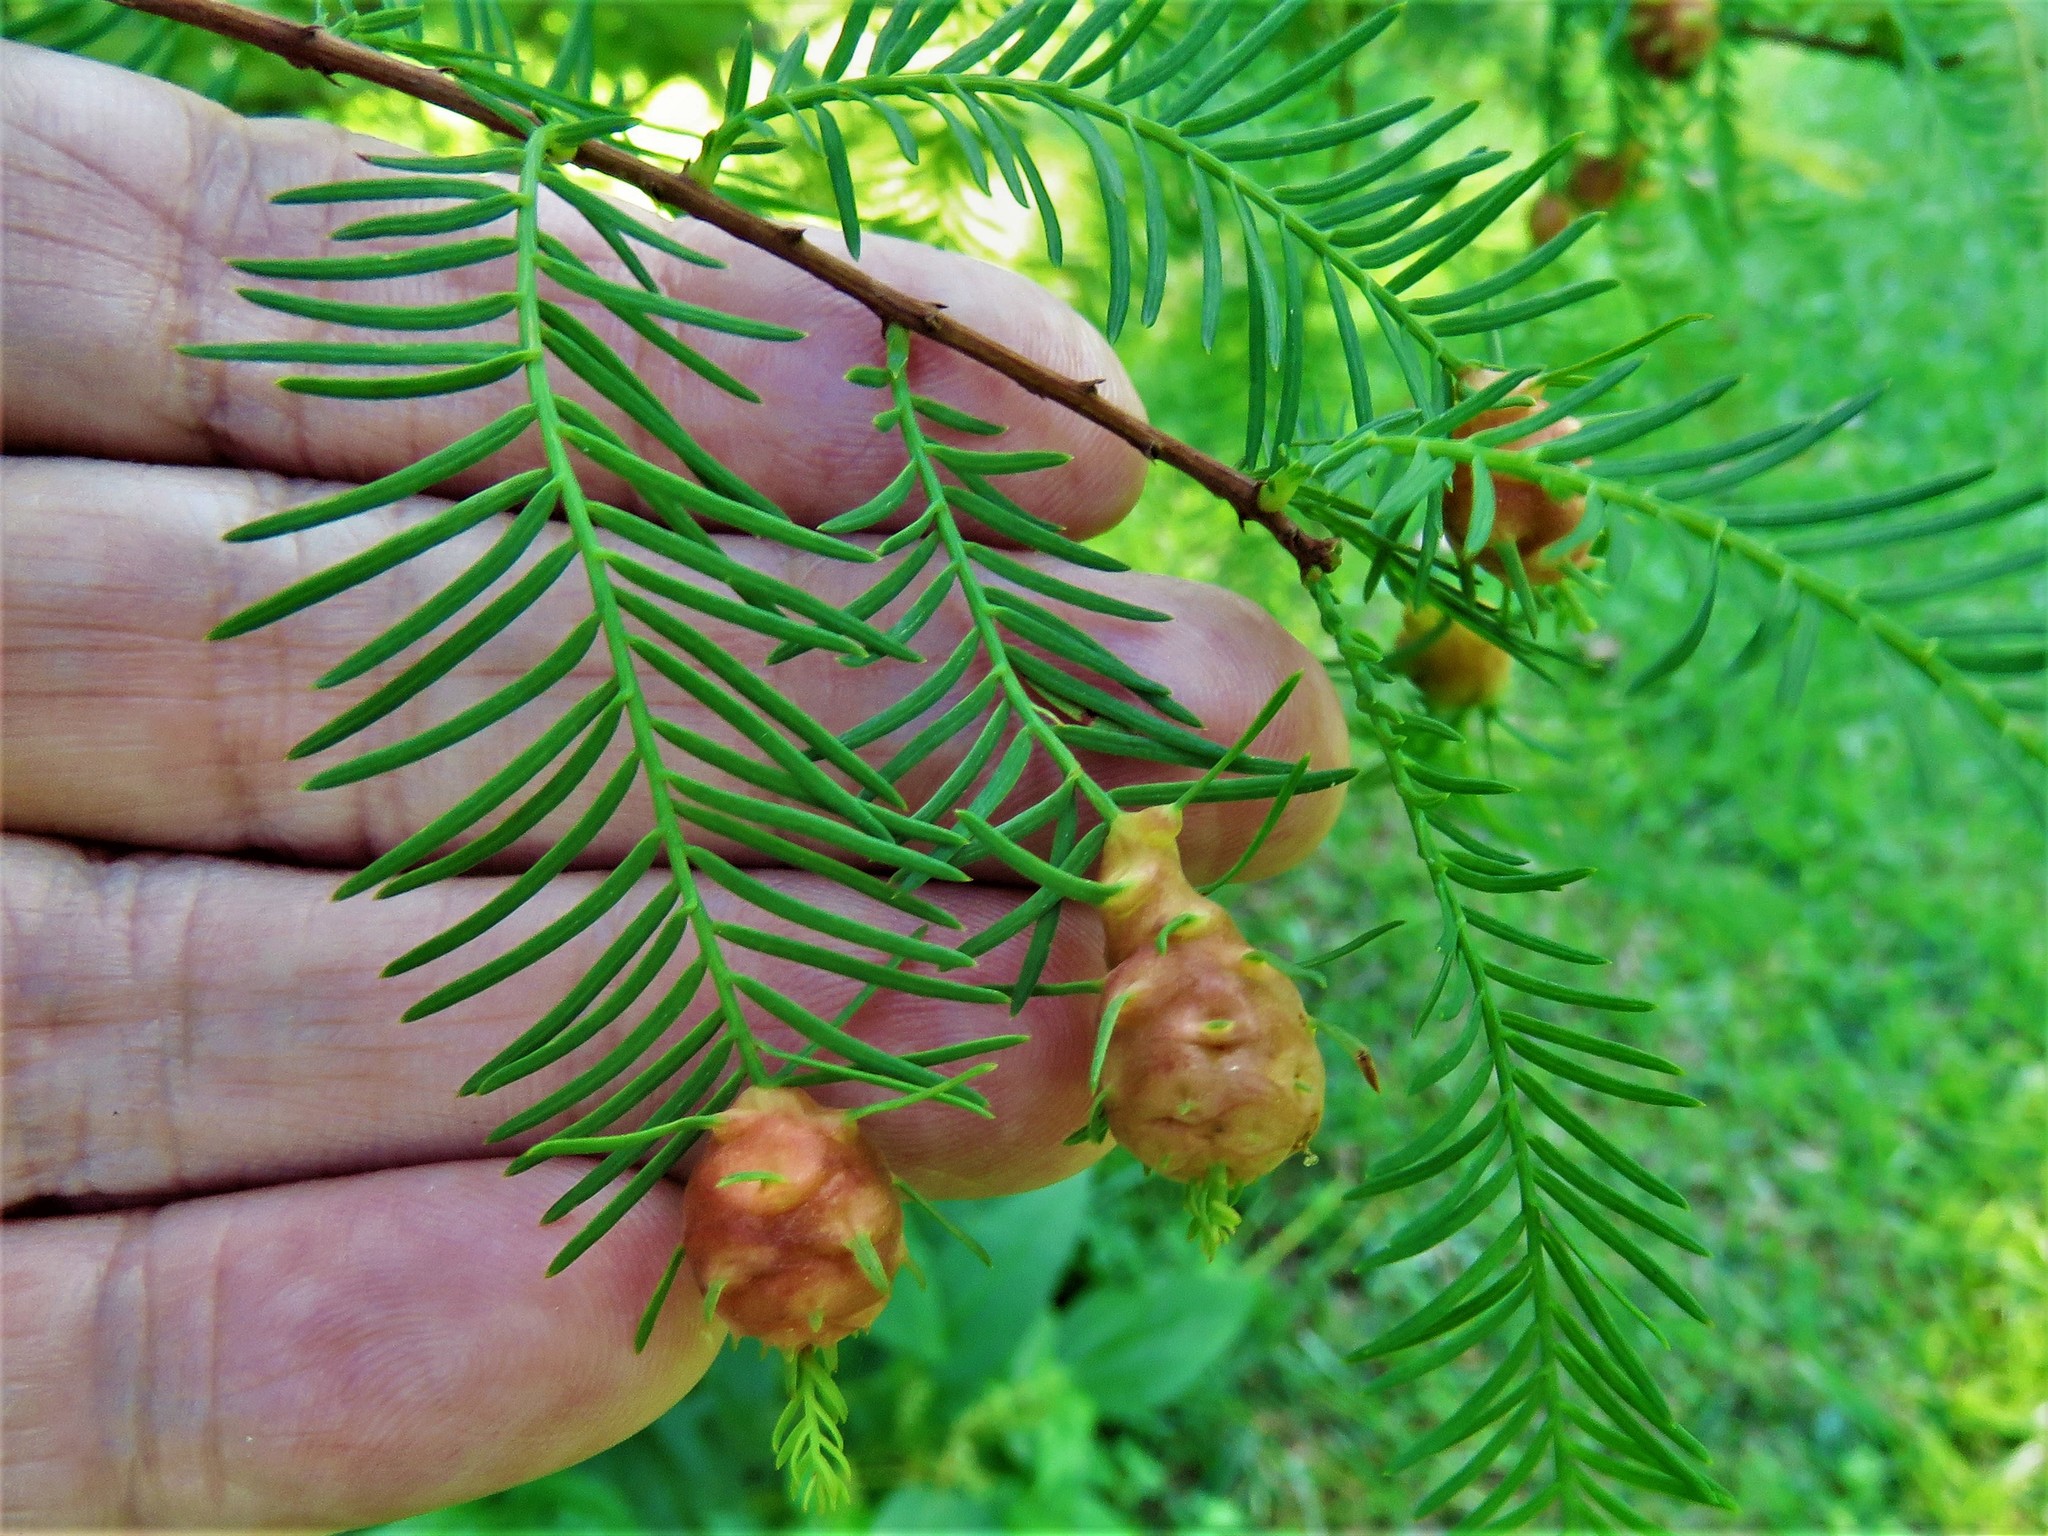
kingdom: Animalia
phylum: Arthropoda
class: Insecta
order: Diptera
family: Cecidomyiidae
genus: Taxodiomyia
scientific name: Taxodiomyia cupressiananassa
